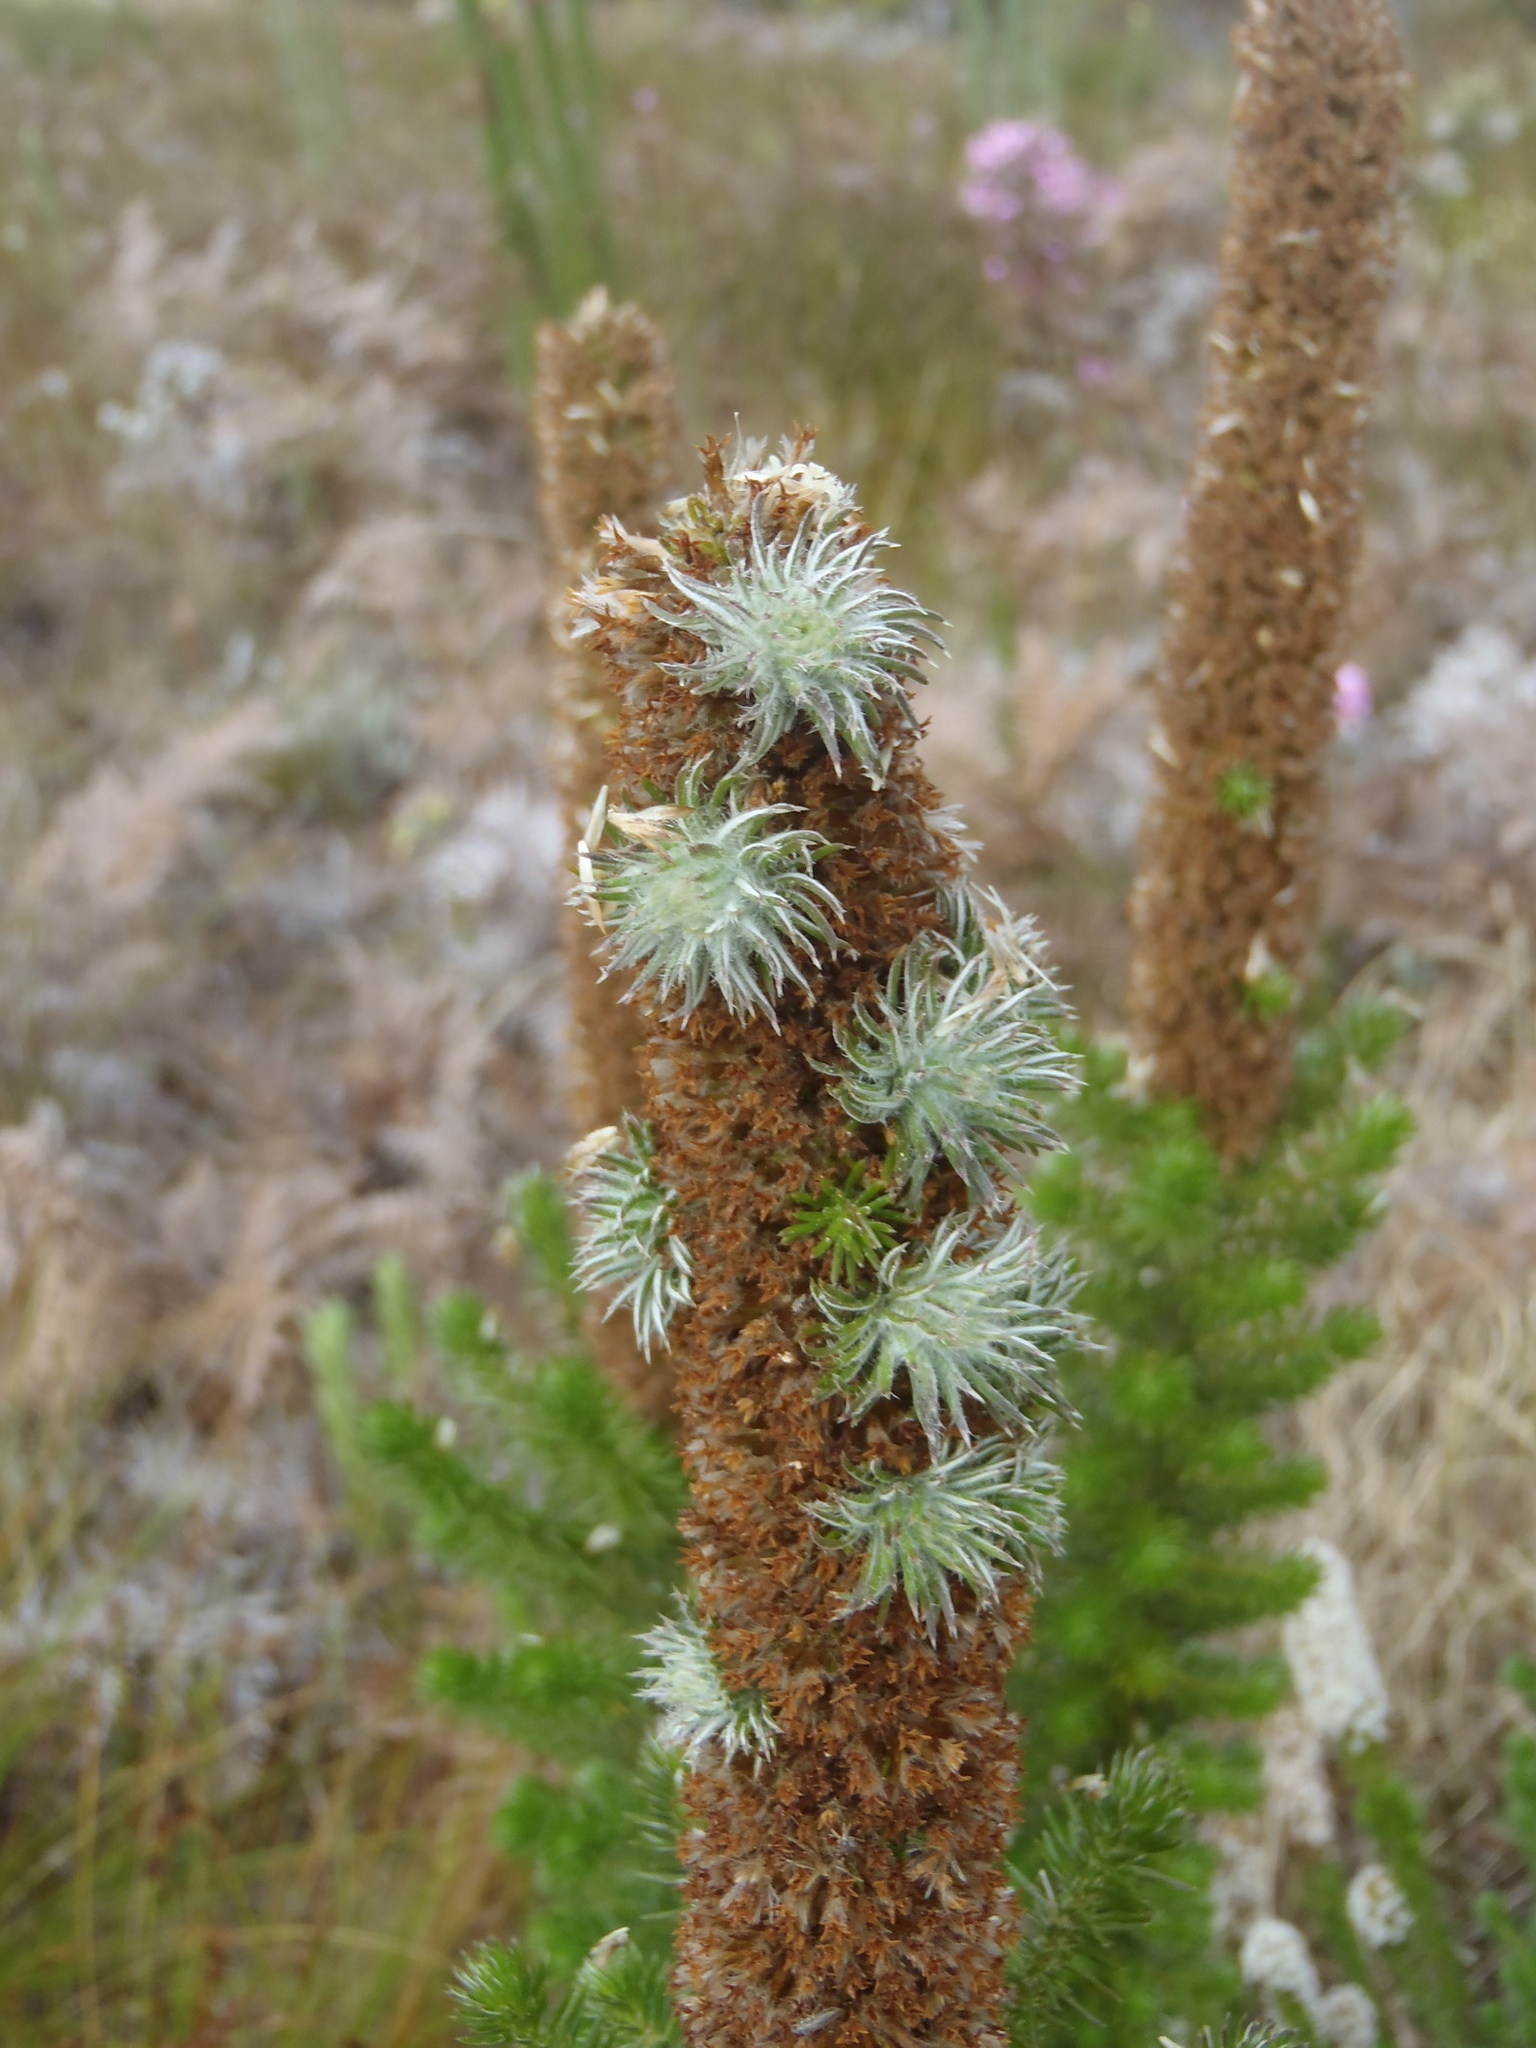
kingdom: Plantae
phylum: Tracheophyta
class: Magnoliopsida
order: Asterales
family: Asteraceae
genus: Stoebe
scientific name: Stoebe alopecuroides
